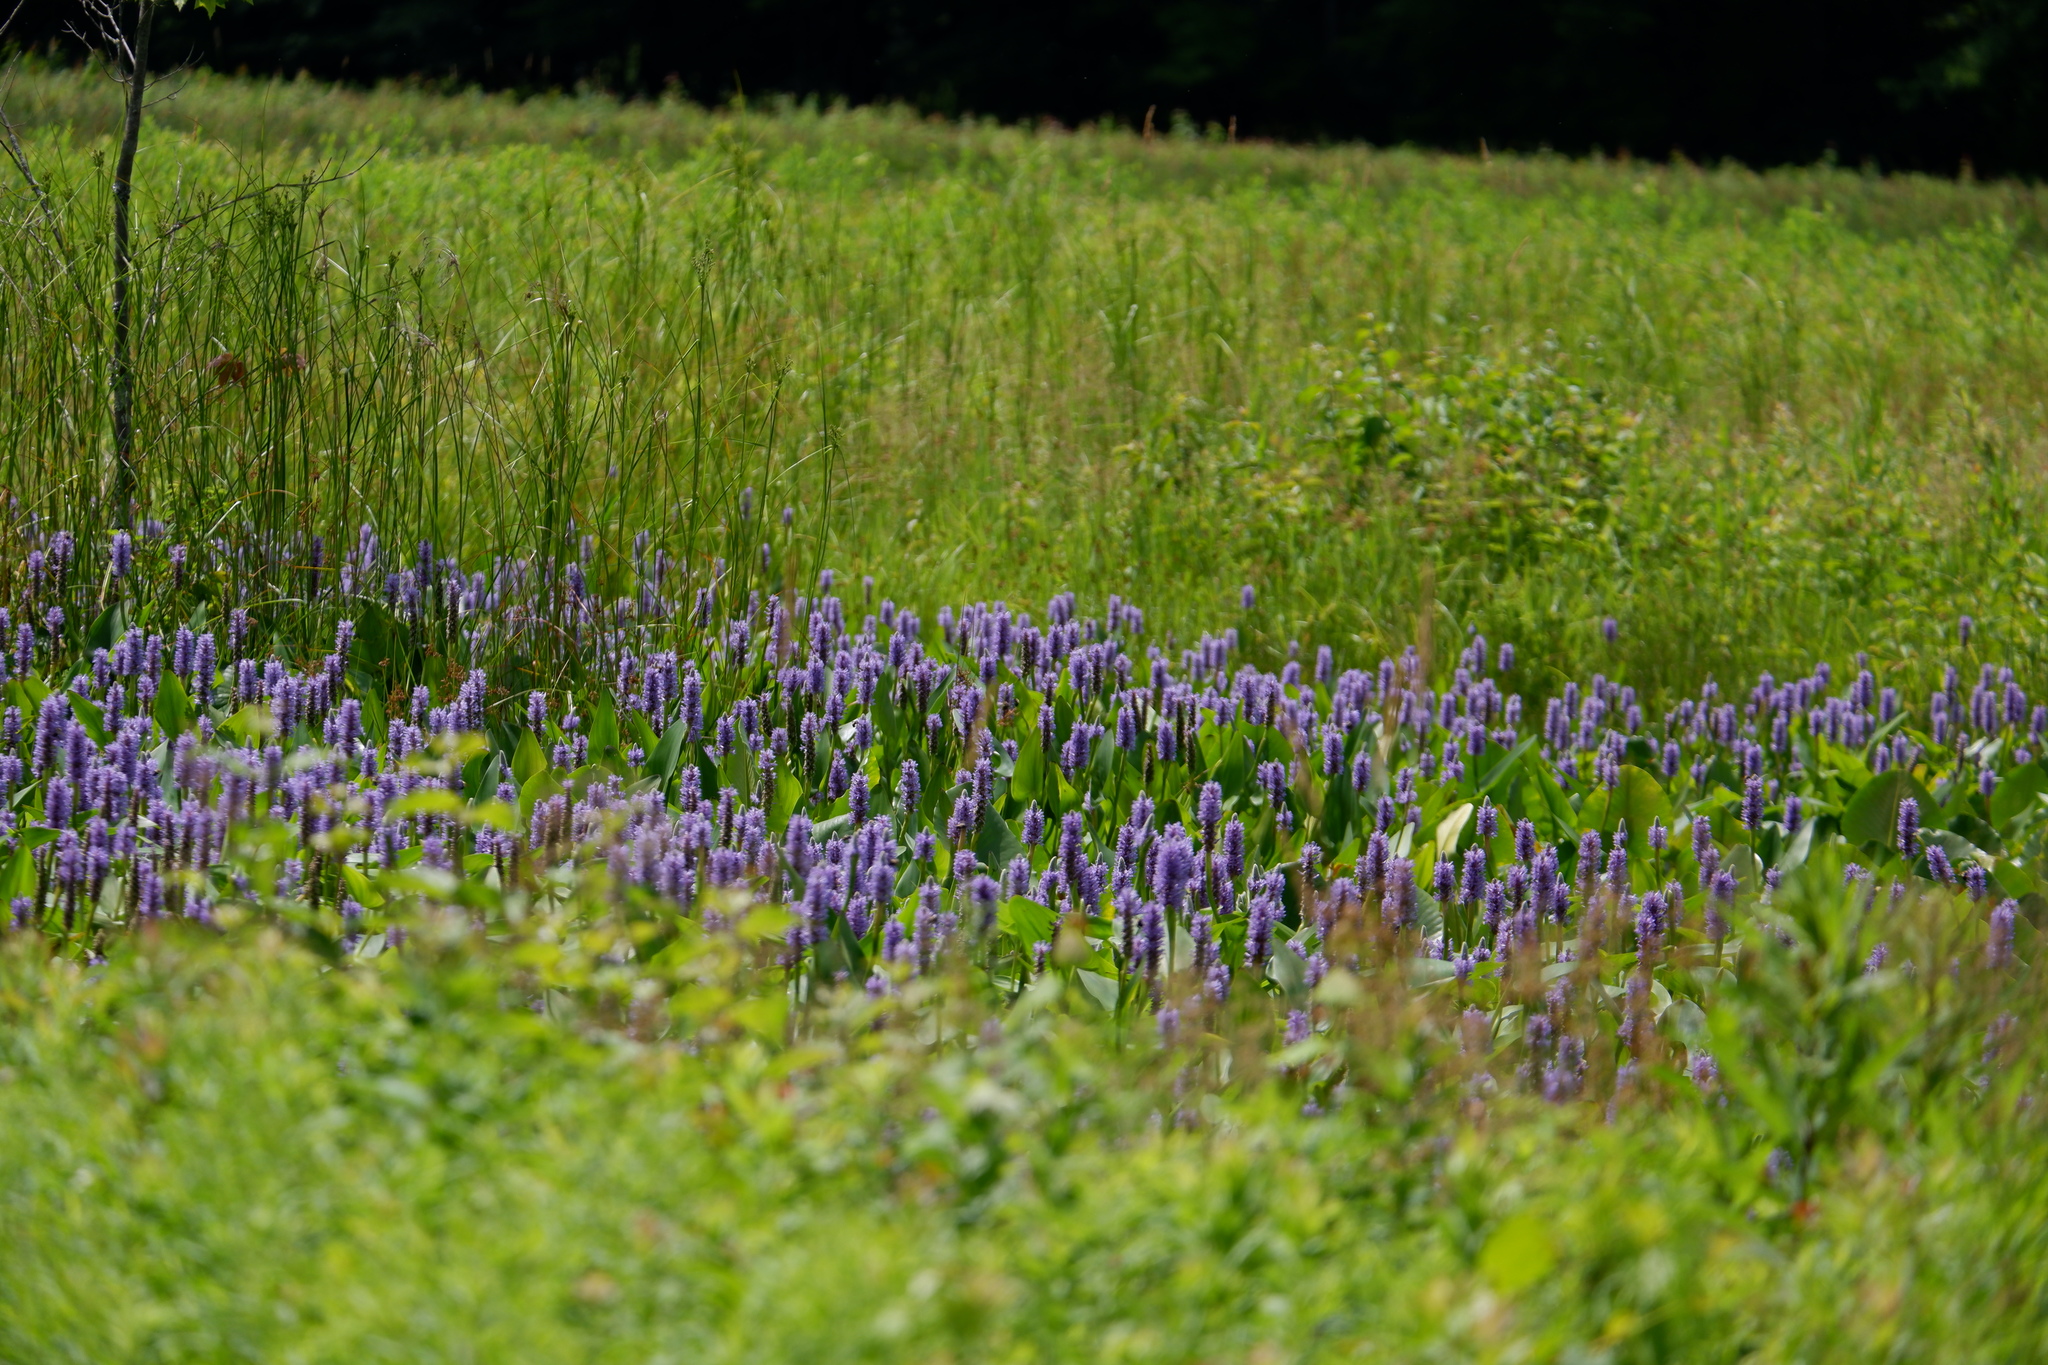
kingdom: Plantae
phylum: Tracheophyta
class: Liliopsida
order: Commelinales
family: Pontederiaceae
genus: Pontederia
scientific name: Pontederia cordata
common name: Pickerelweed
